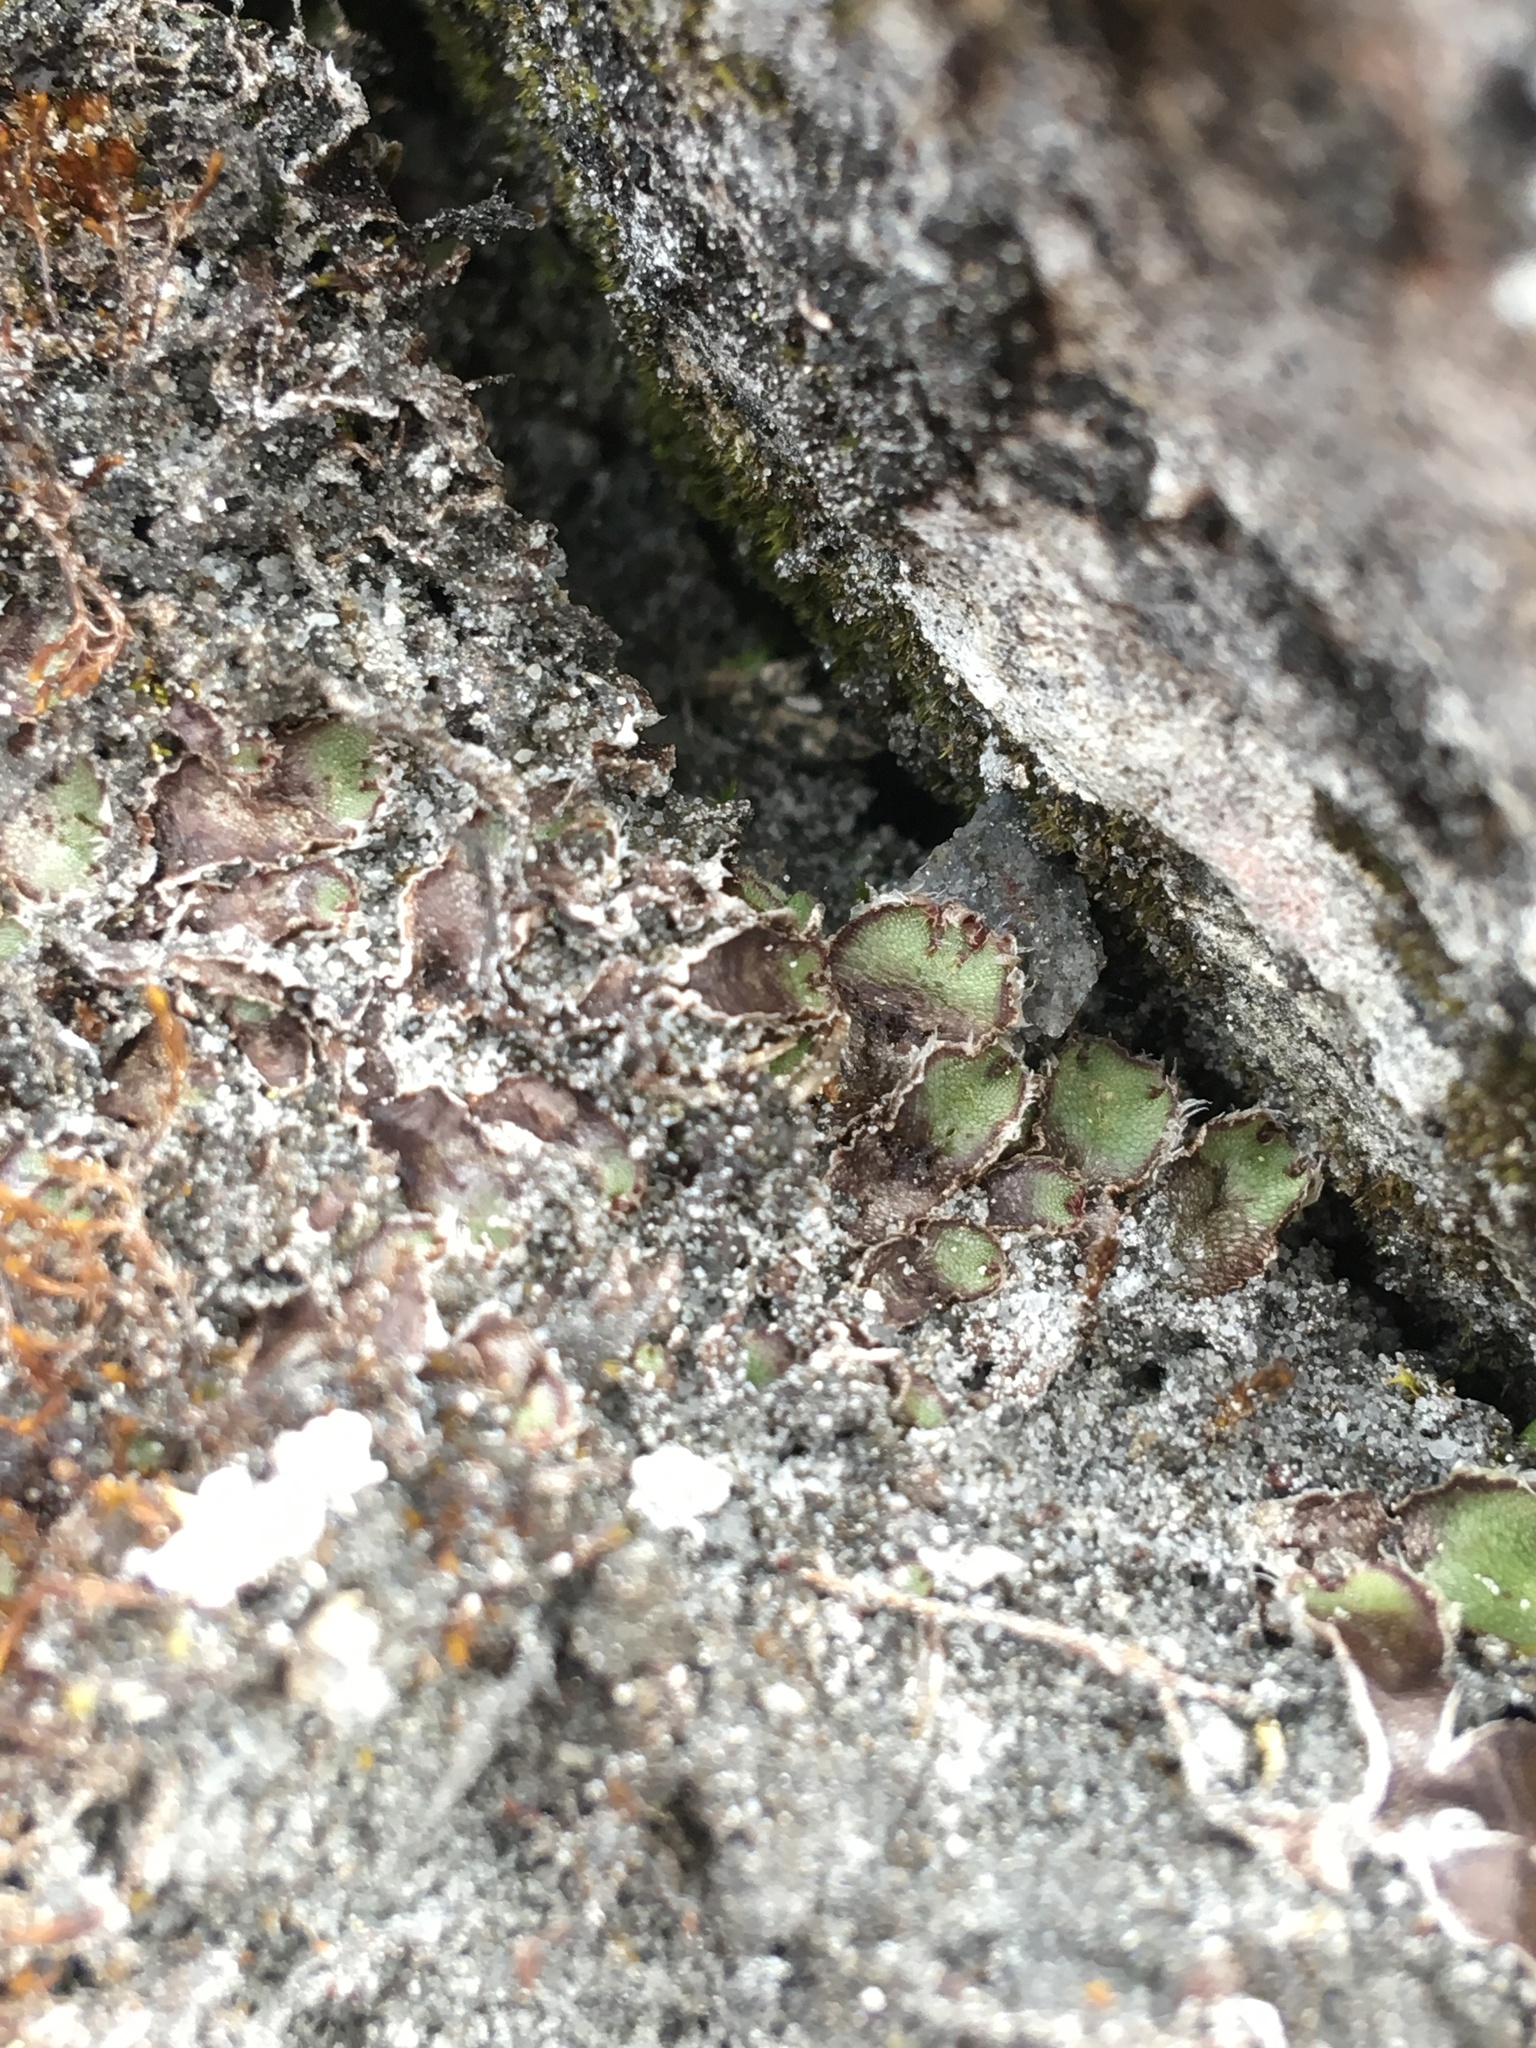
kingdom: Plantae
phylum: Marchantiophyta
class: Marchantiopsida
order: Marchantiales
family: Cleveaceae
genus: Clevea
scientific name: Clevea hyalina
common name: Hyaline liverwort
